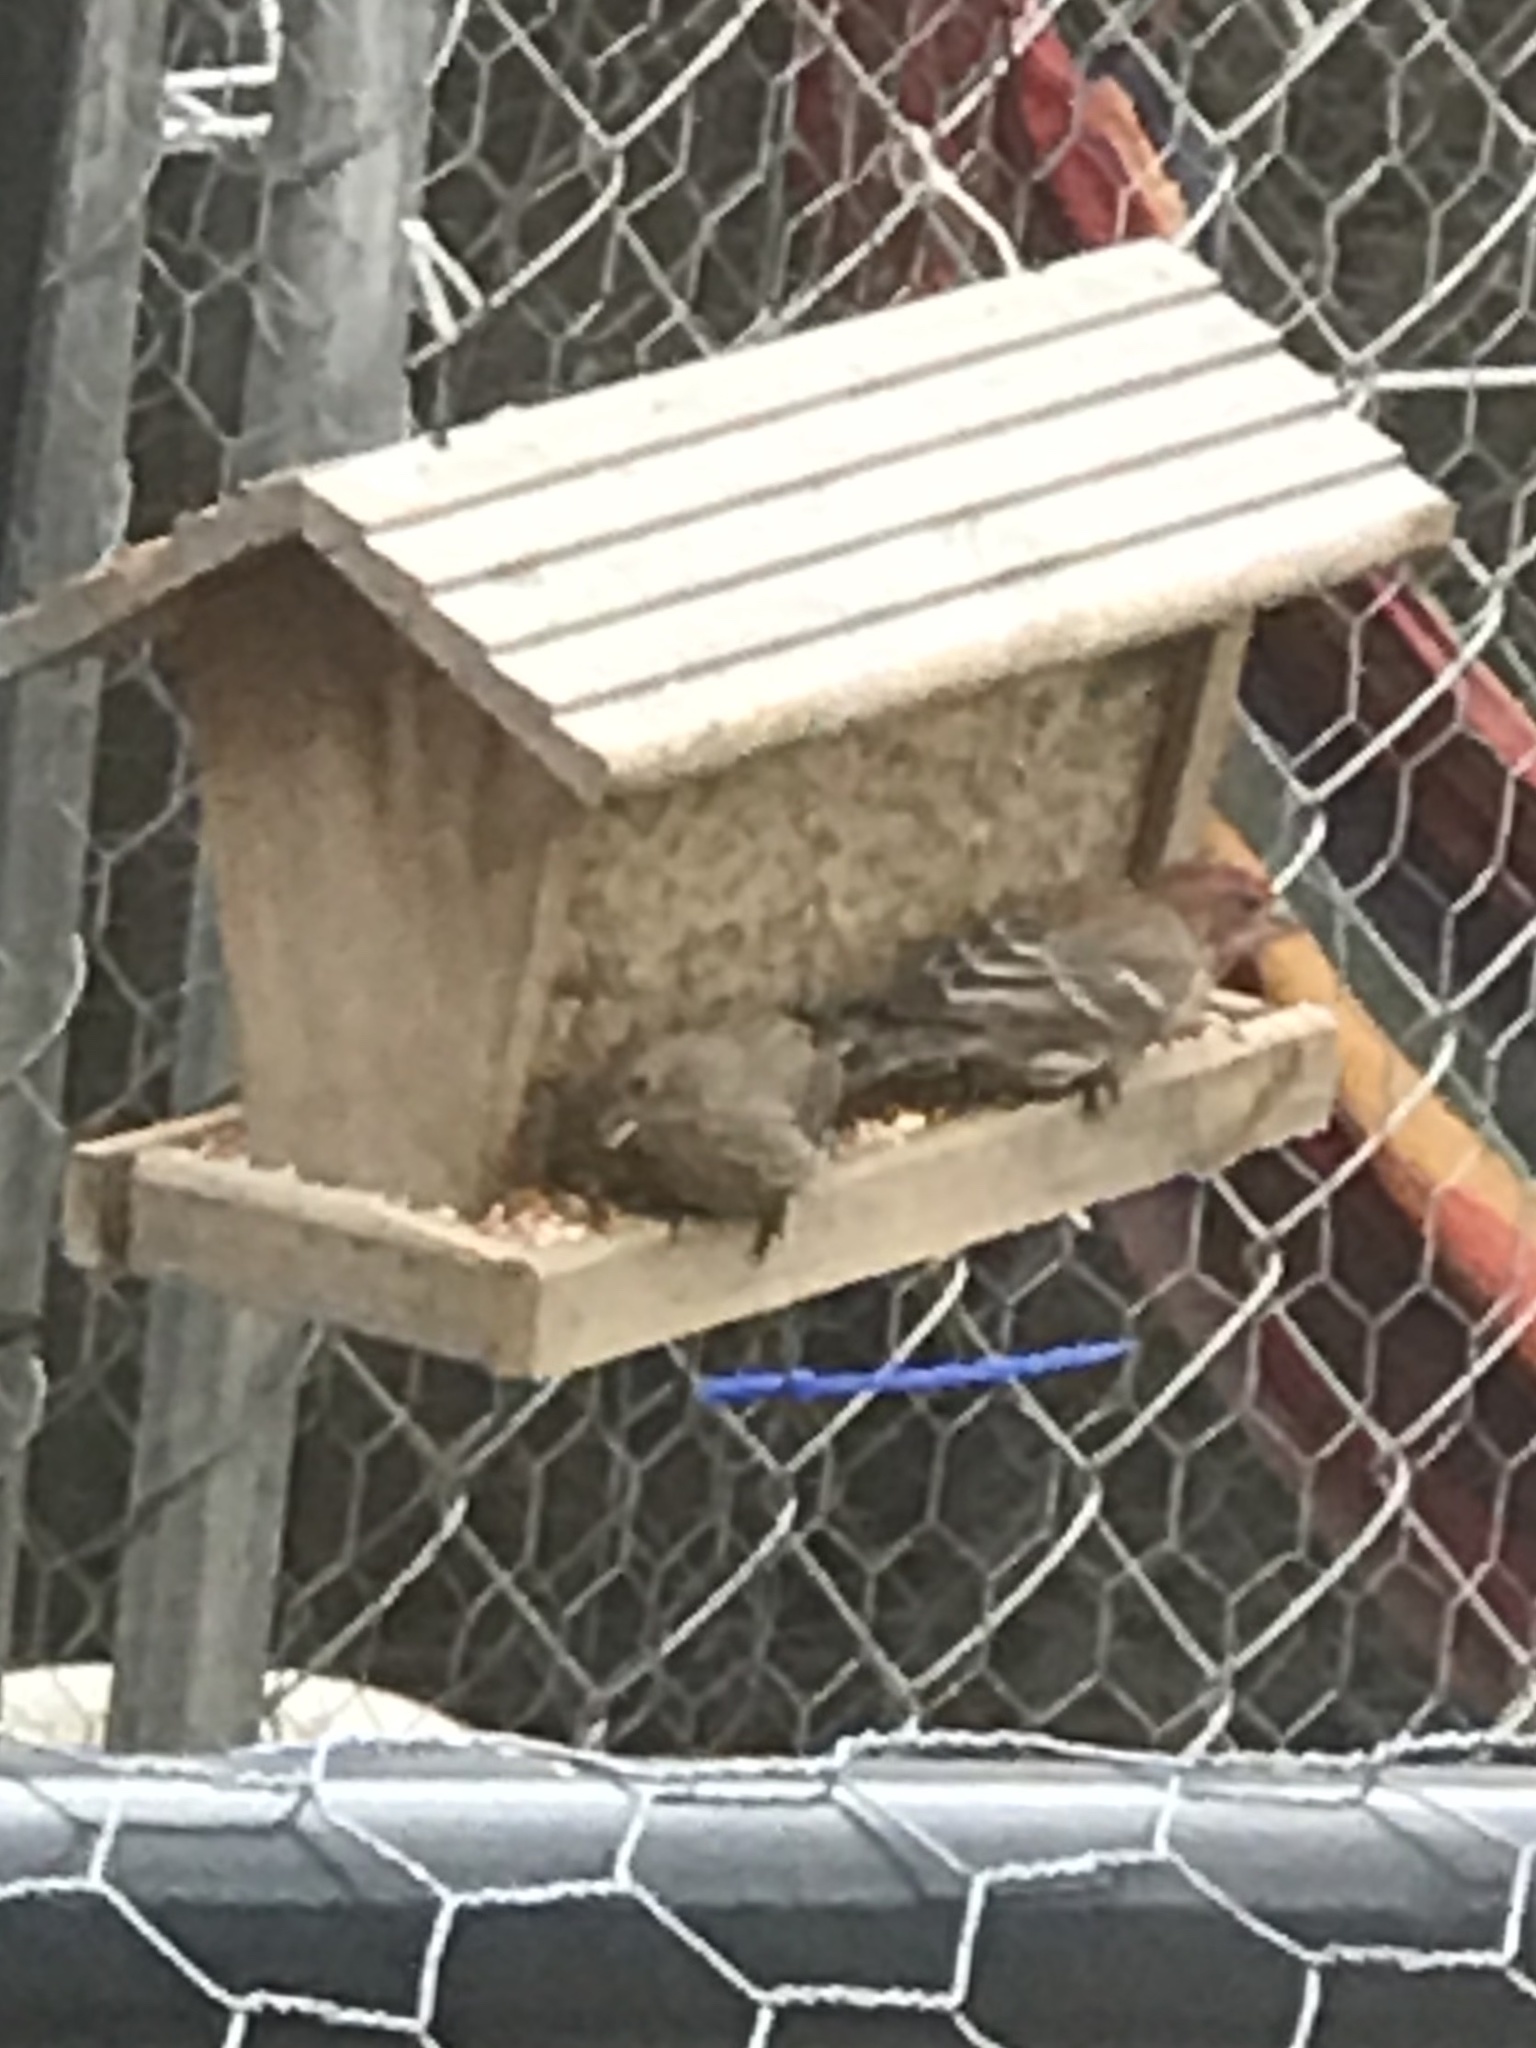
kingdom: Animalia
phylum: Chordata
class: Aves
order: Passeriformes
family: Fringillidae
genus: Haemorhous
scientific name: Haemorhous mexicanus
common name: House finch
